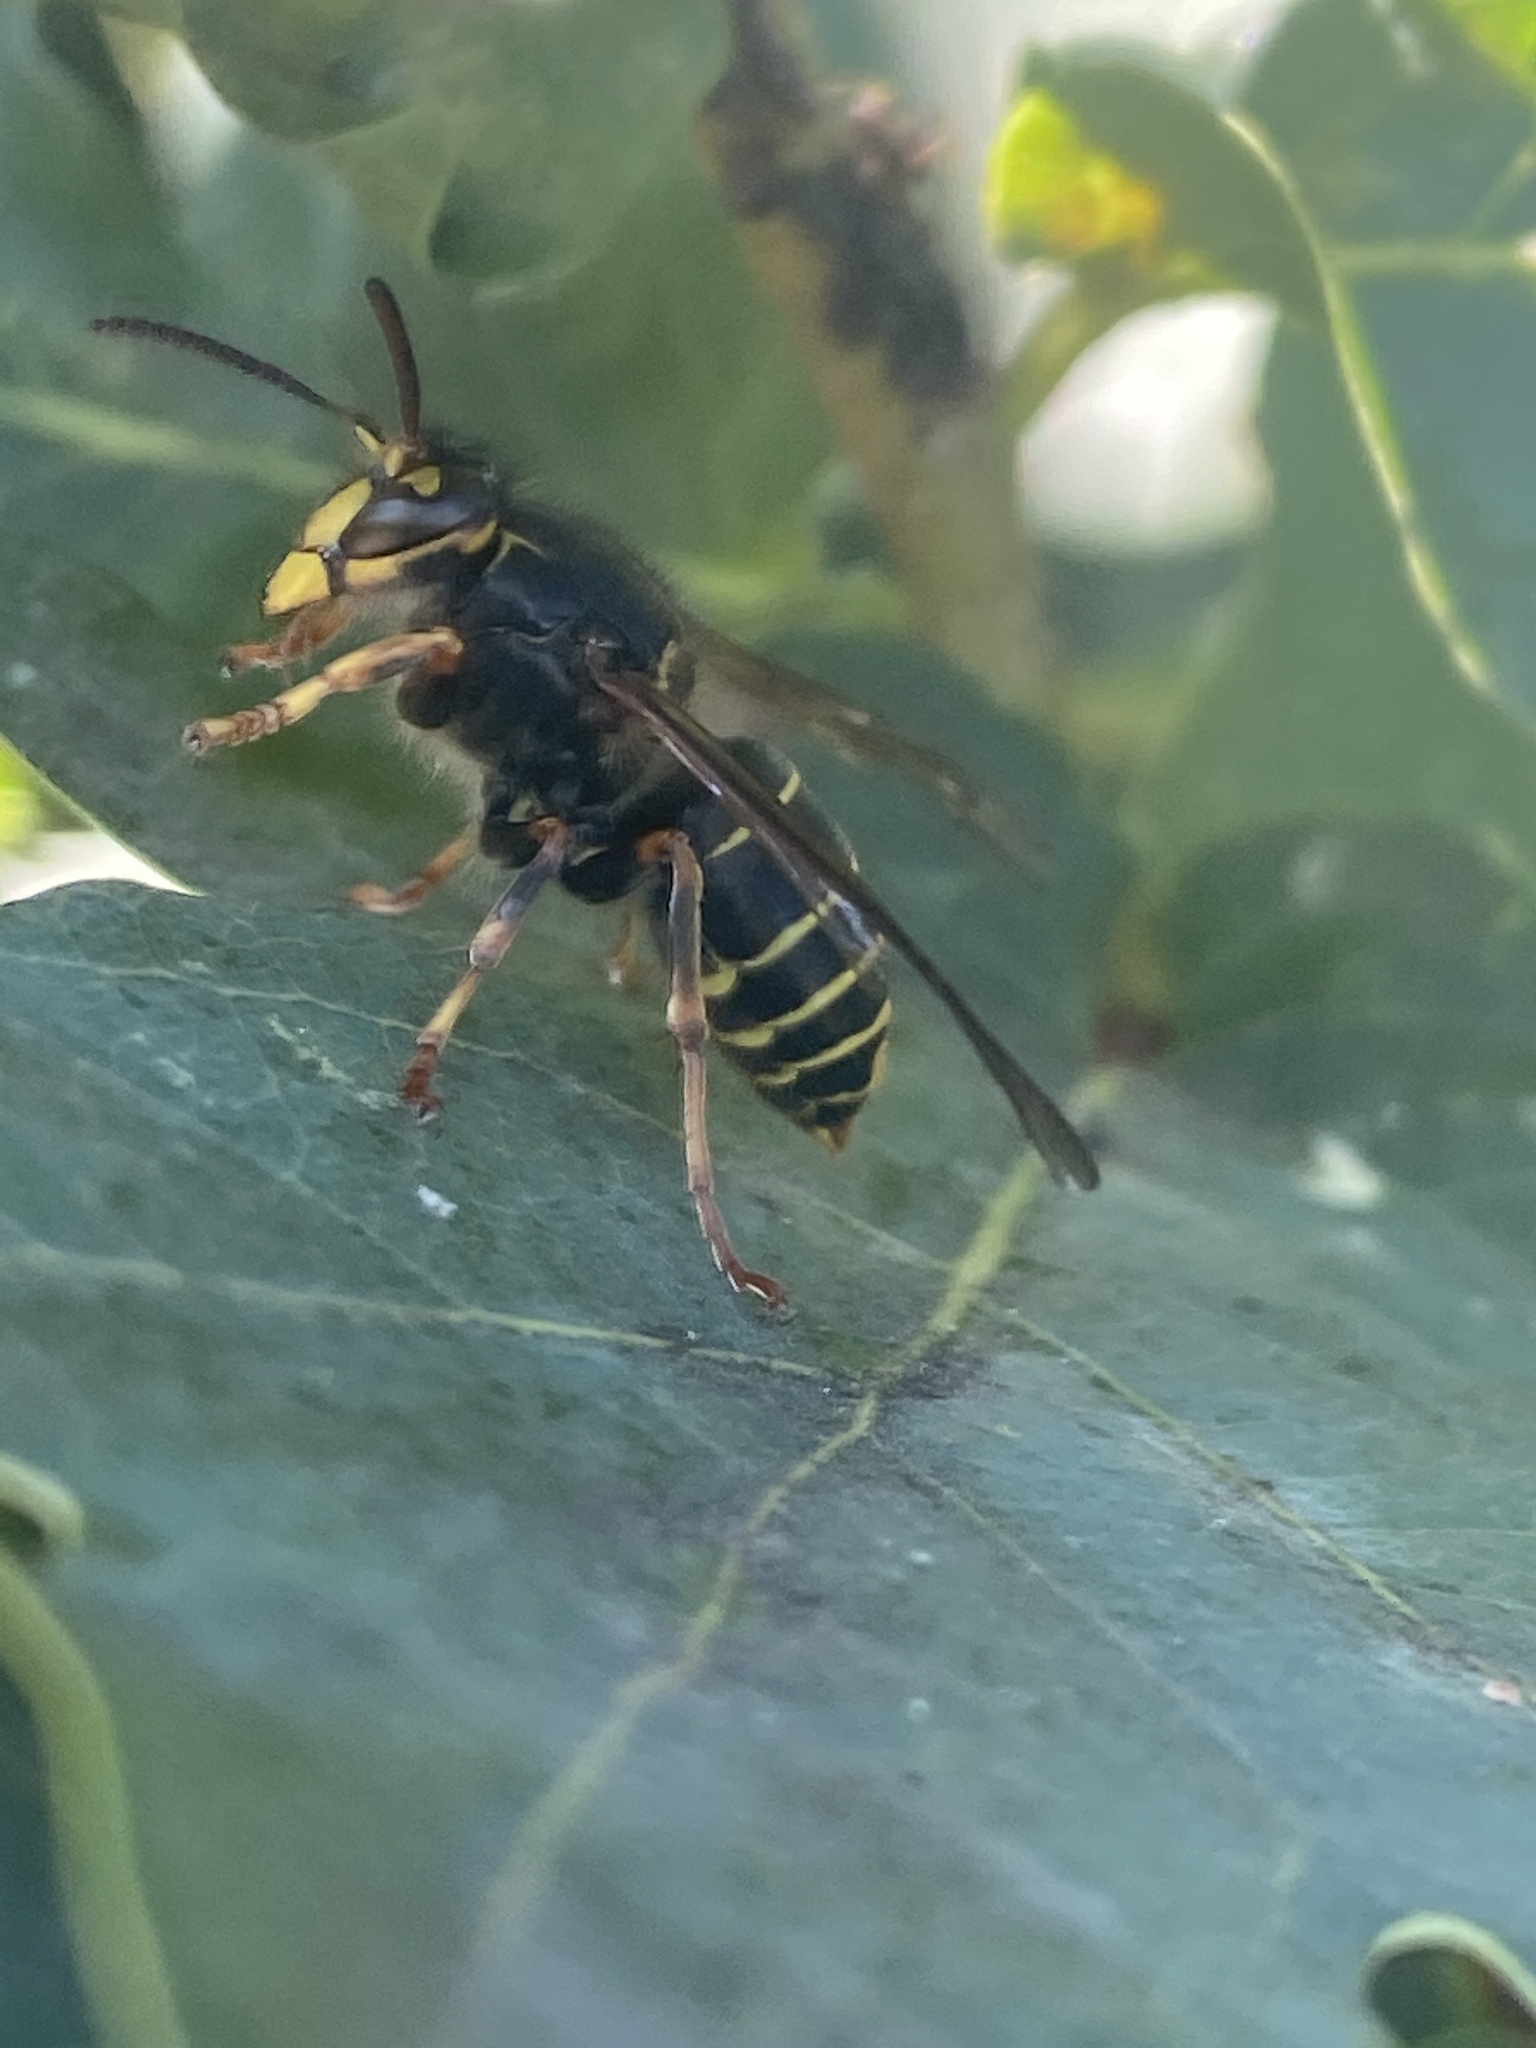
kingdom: Animalia
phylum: Arthropoda
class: Insecta
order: Hymenoptera
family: Vespidae
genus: Dolichovespula
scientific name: Dolichovespula media
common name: Median wasp
